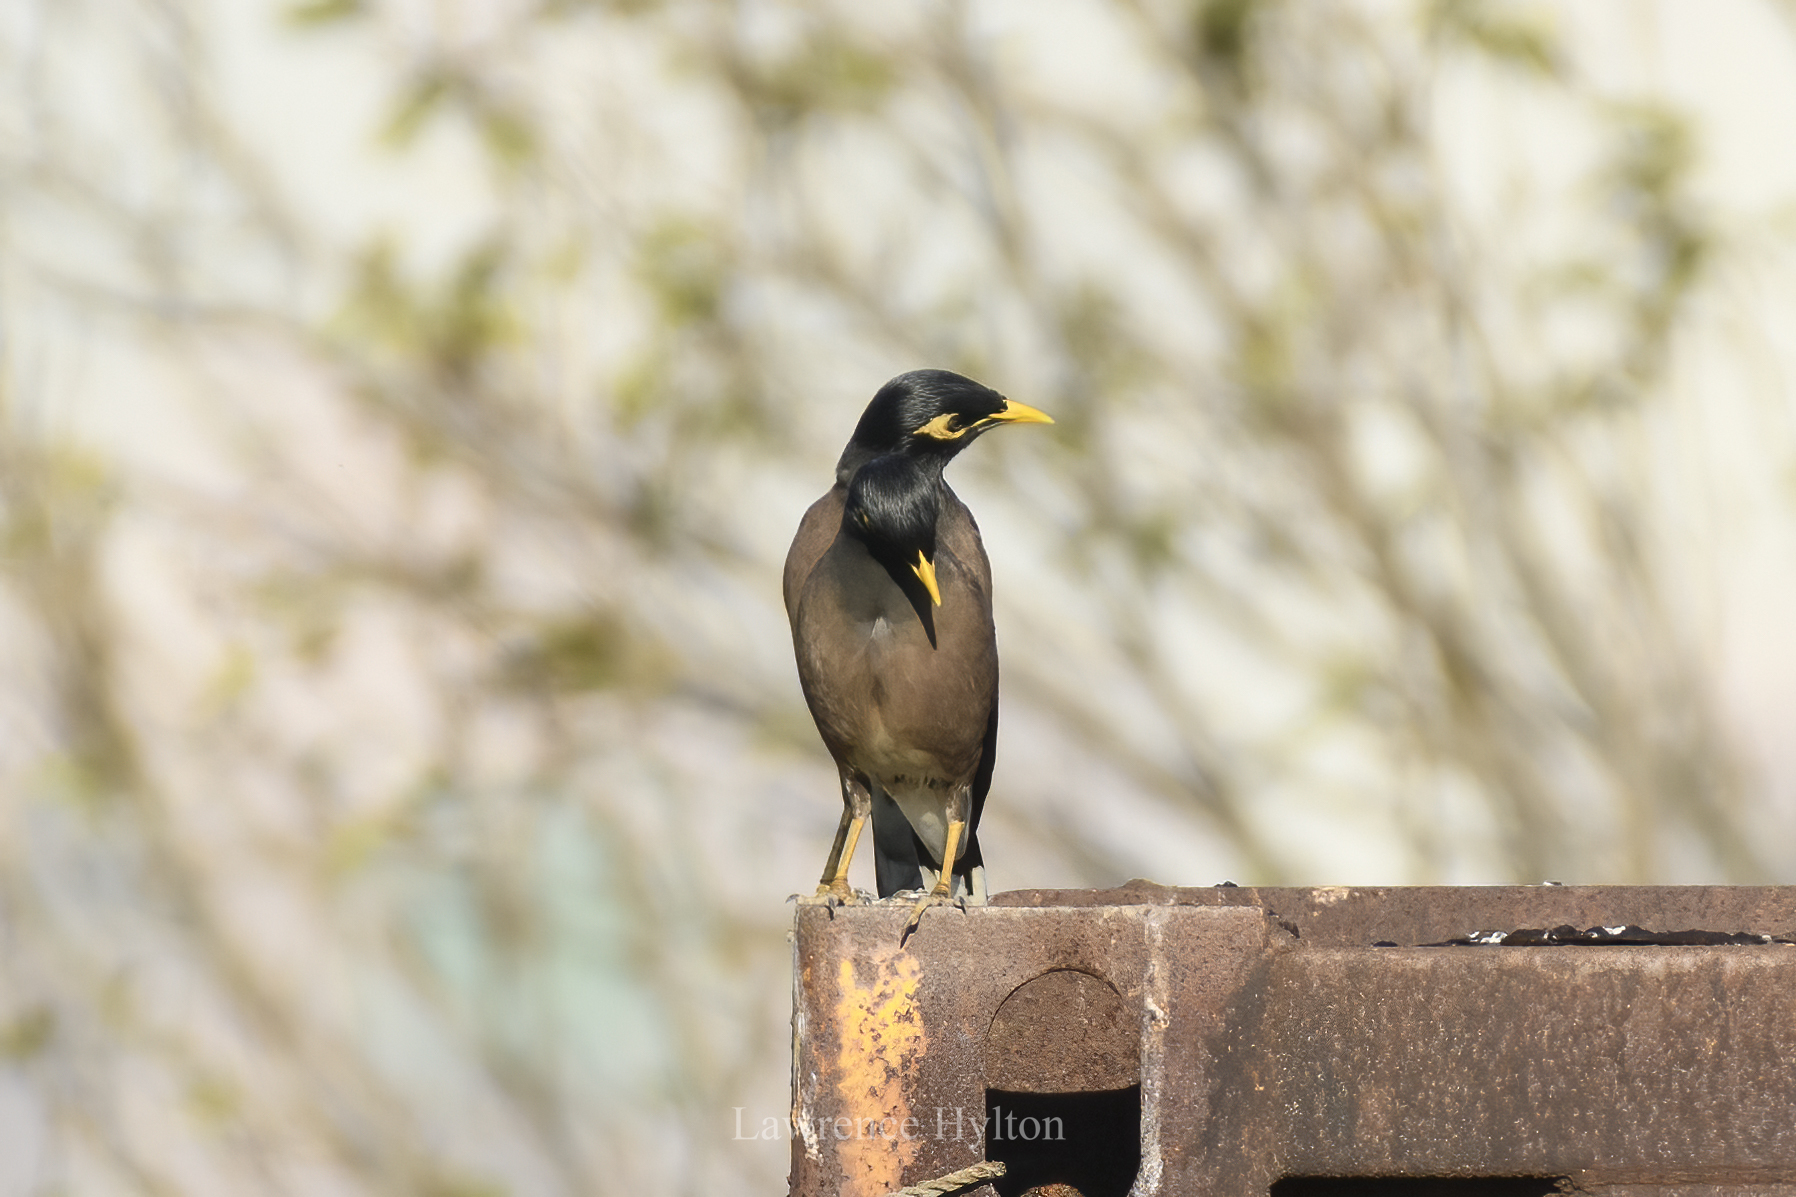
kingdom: Animalia
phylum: Chordata
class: Aves
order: Passeriformes
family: Sturnidae
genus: Acridotheres
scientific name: Acridotheres tristis
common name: Common myna
